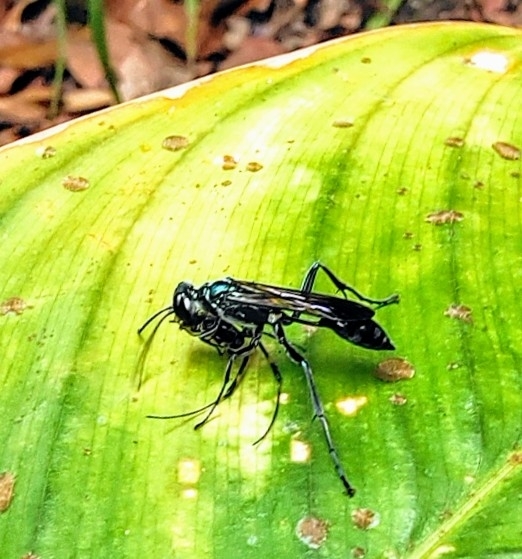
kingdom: Animalia
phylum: Arthropoda
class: Insecta
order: Hymenoptera
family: Sphecidae
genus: Chalybion
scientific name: Chalybion bengalense
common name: Mud dauber
